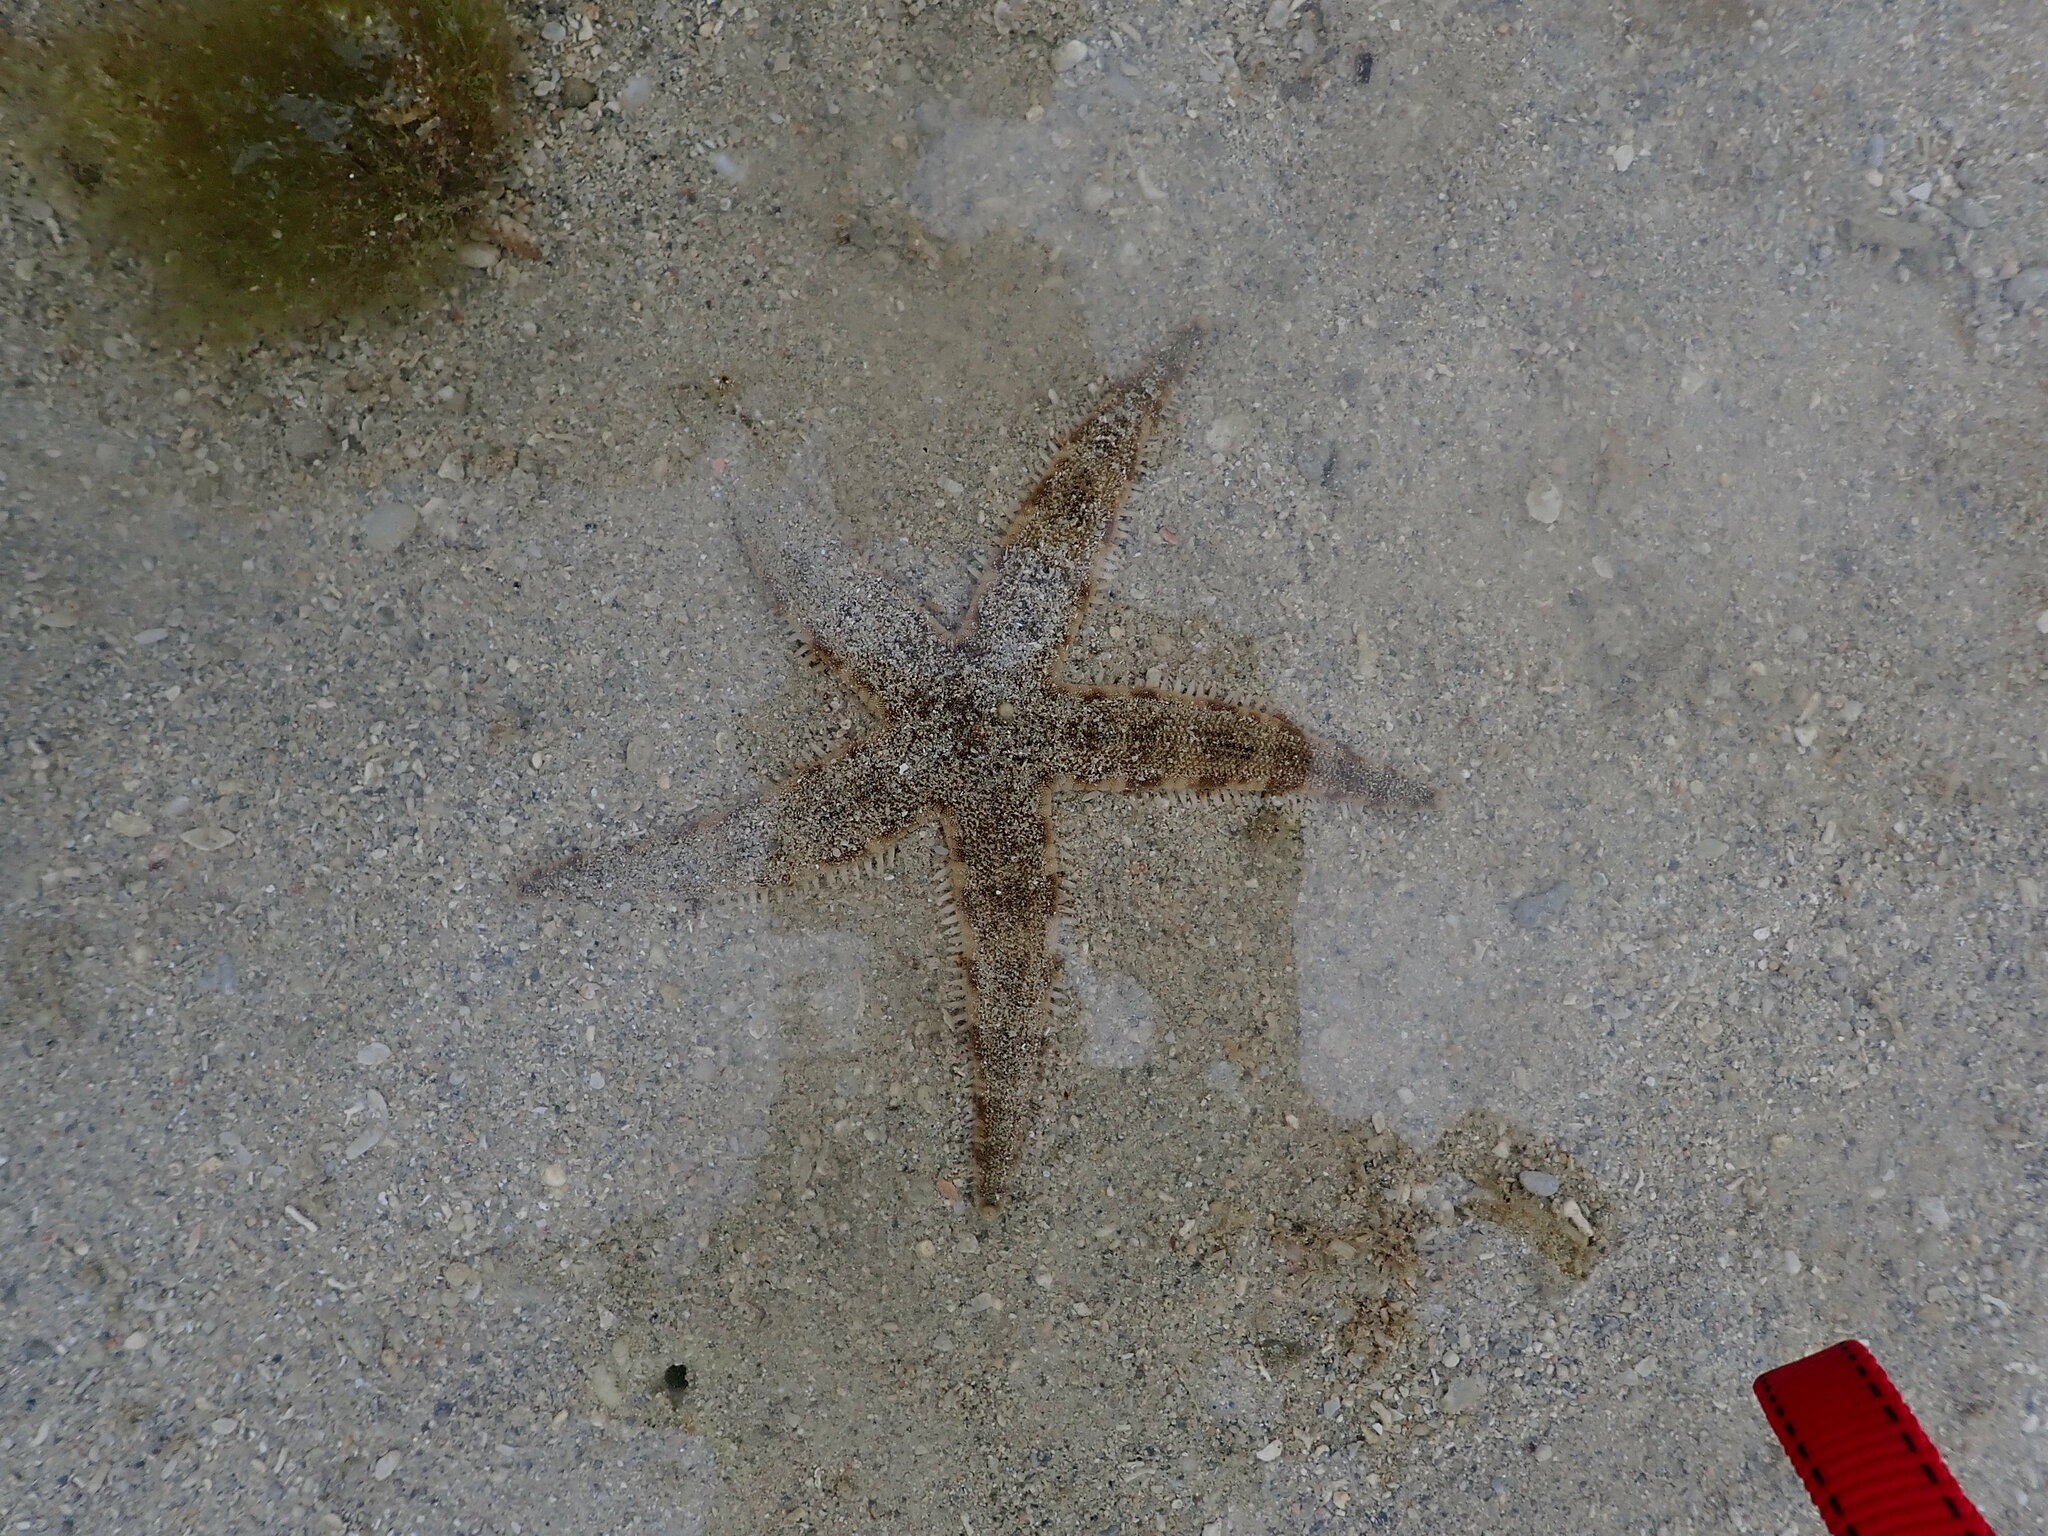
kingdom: Animalia
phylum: Echinodermata
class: Asteroidea
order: Valvatida
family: Archasteridae
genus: Archaster
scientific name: Archaster typicus
